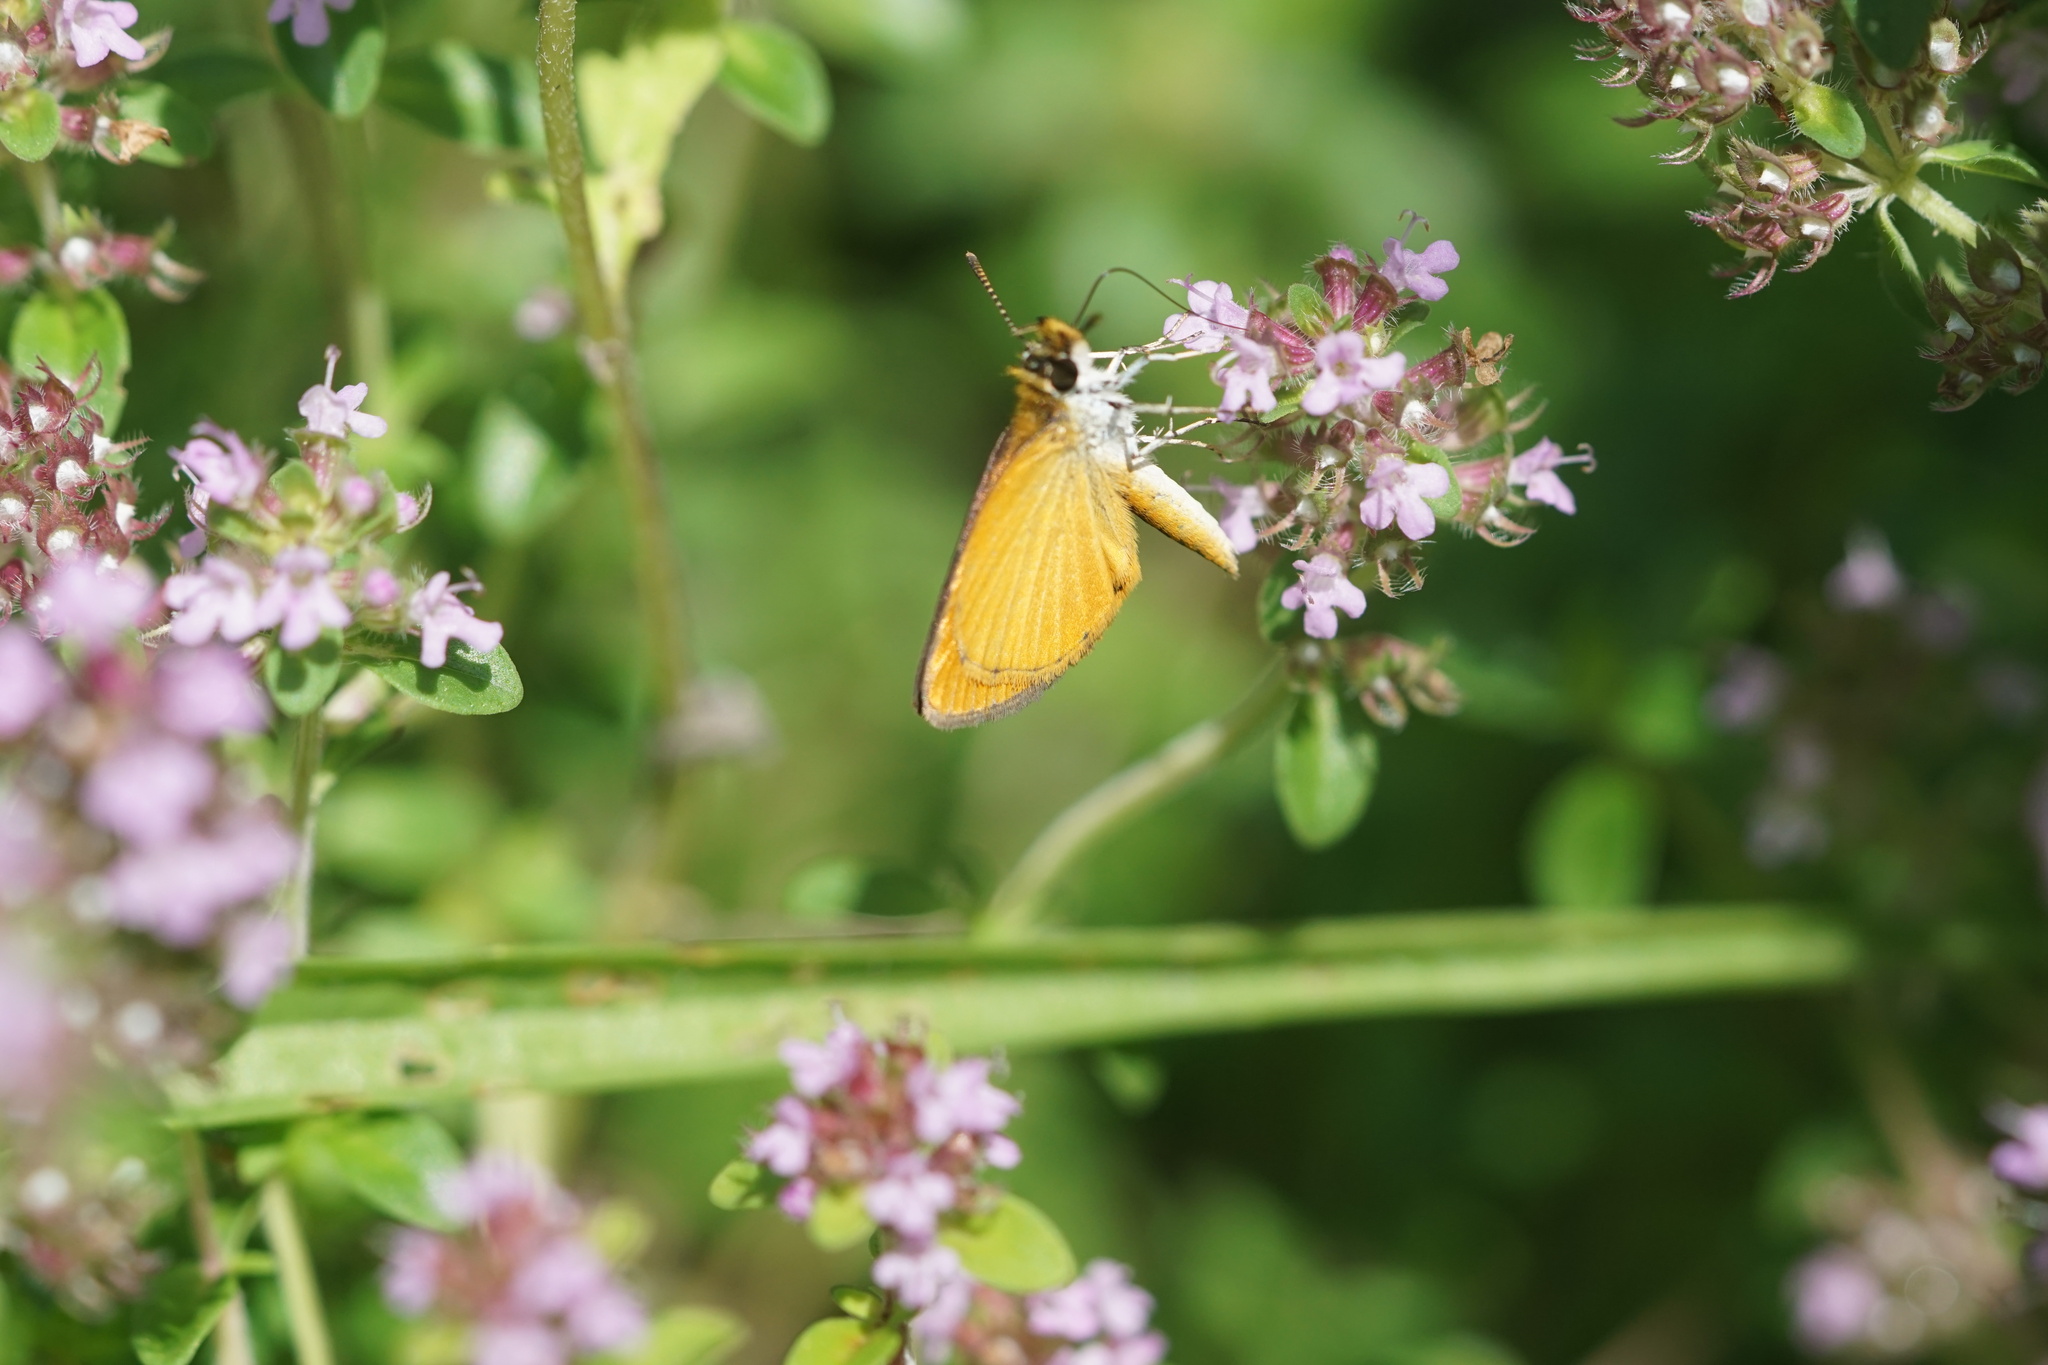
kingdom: Animalia
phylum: Arthropoda
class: Insecta
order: Lepidoptera
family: Hesperiidae
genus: Ancyloxypha
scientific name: Ancyloxypha numitor
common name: Least skipper
